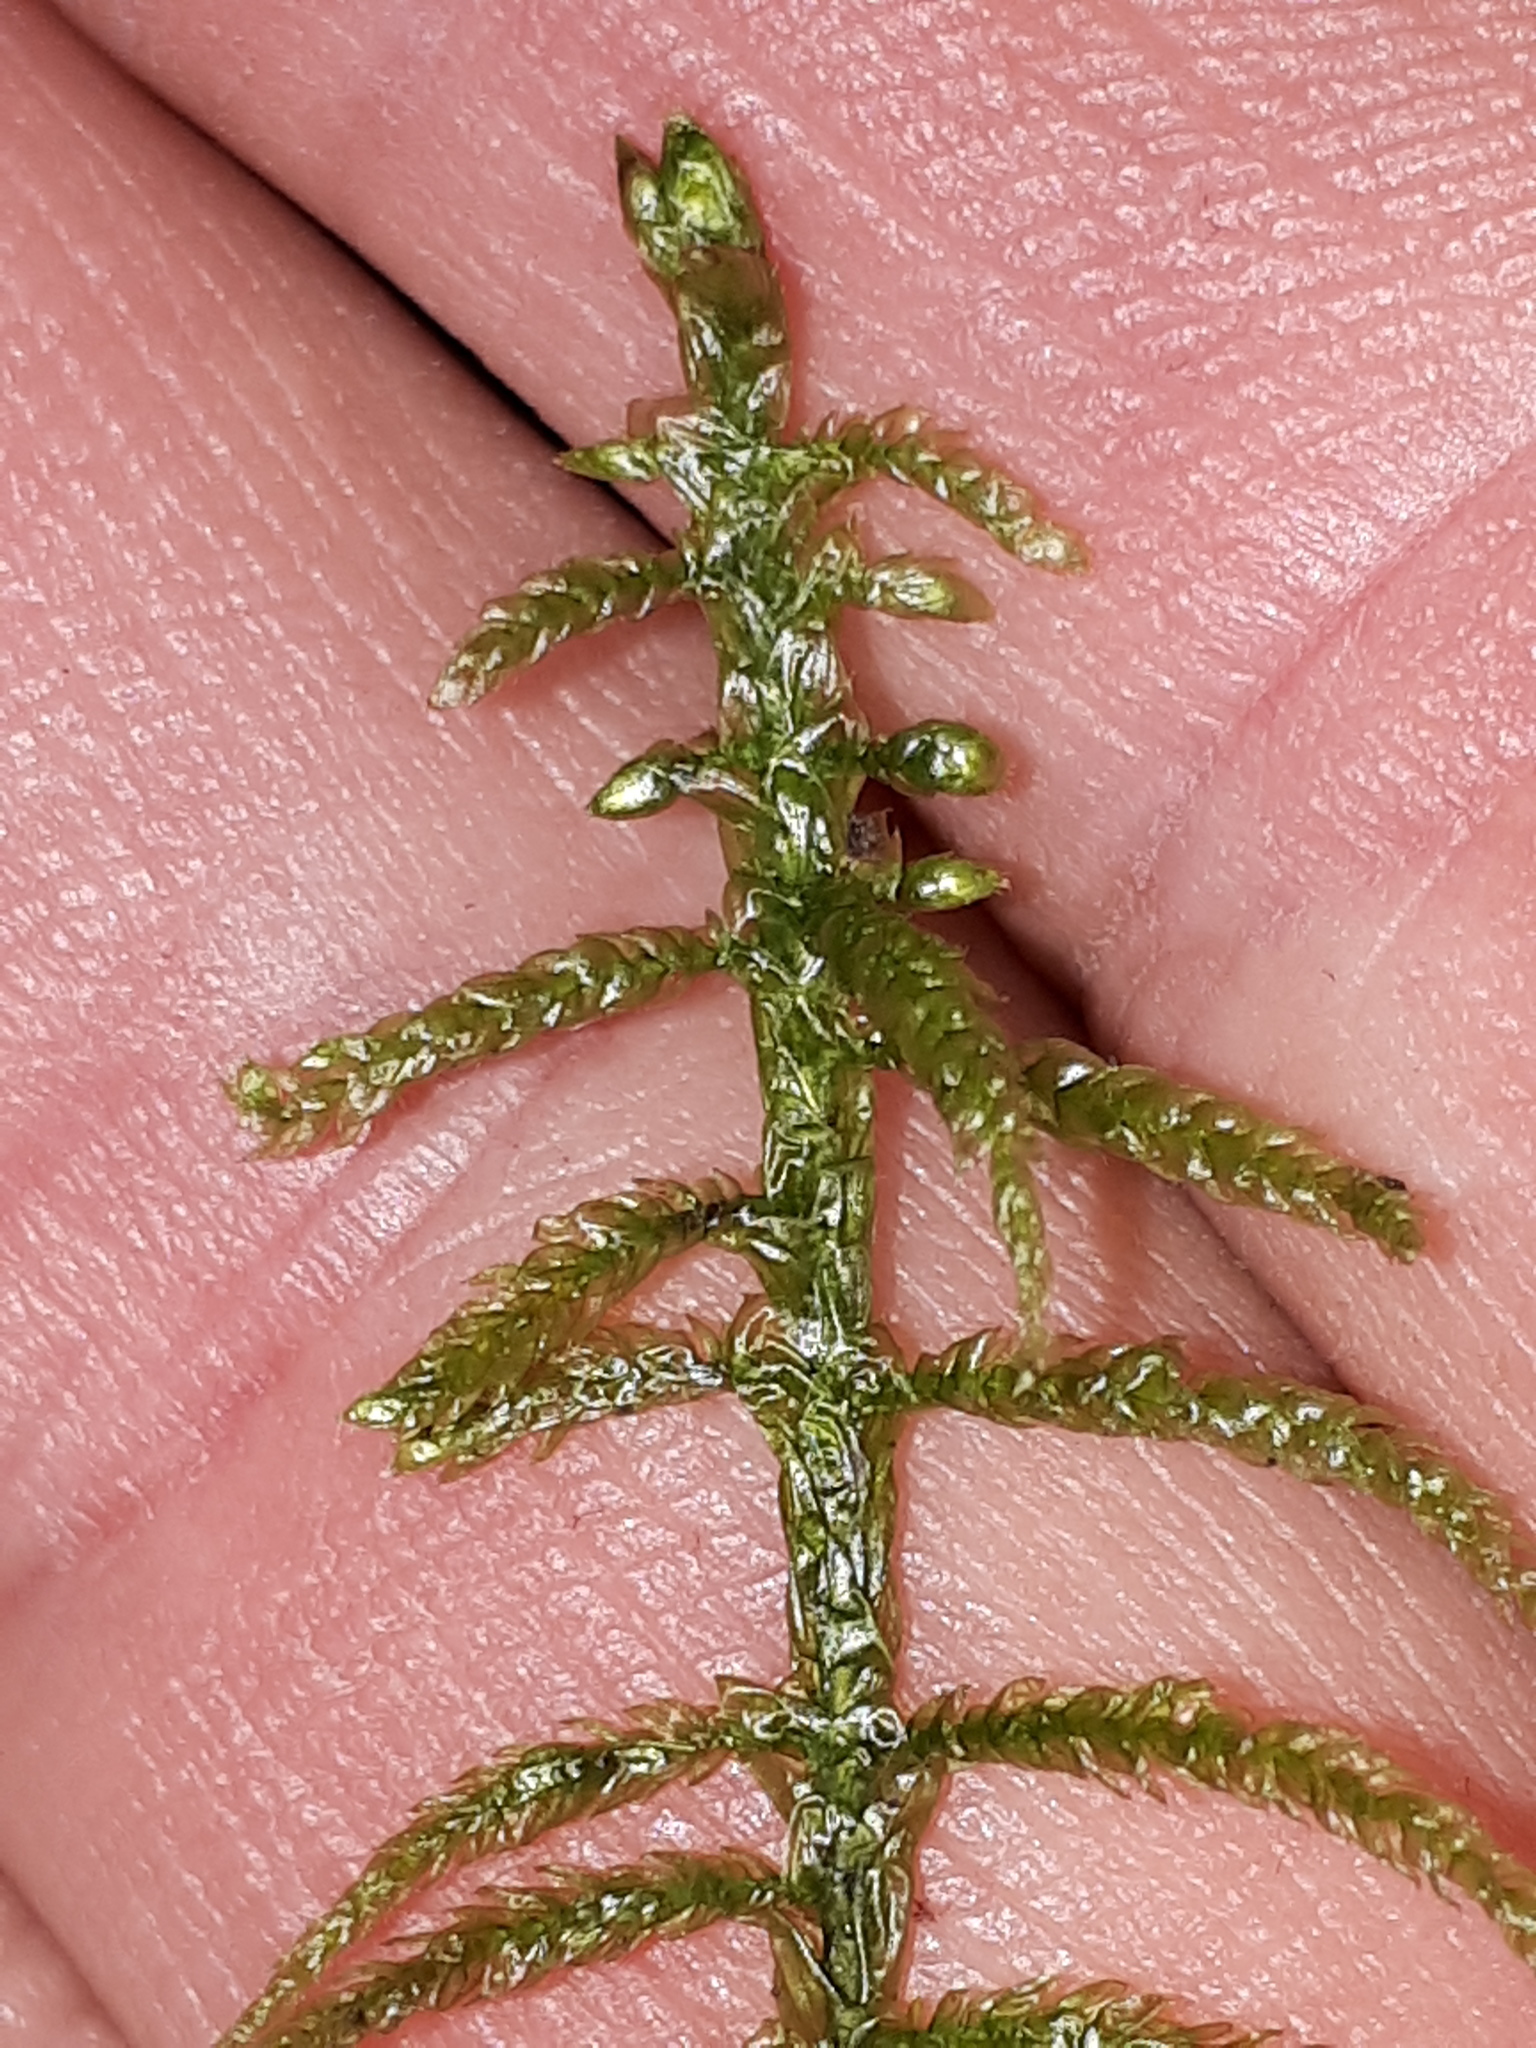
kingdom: Plantae
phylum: Bryophyta
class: Bryopsida
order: Hypnales
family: Hylocomiaceae
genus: Pleurozium
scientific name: Pleurozium schreberi
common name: Red-stemmed feather moss
